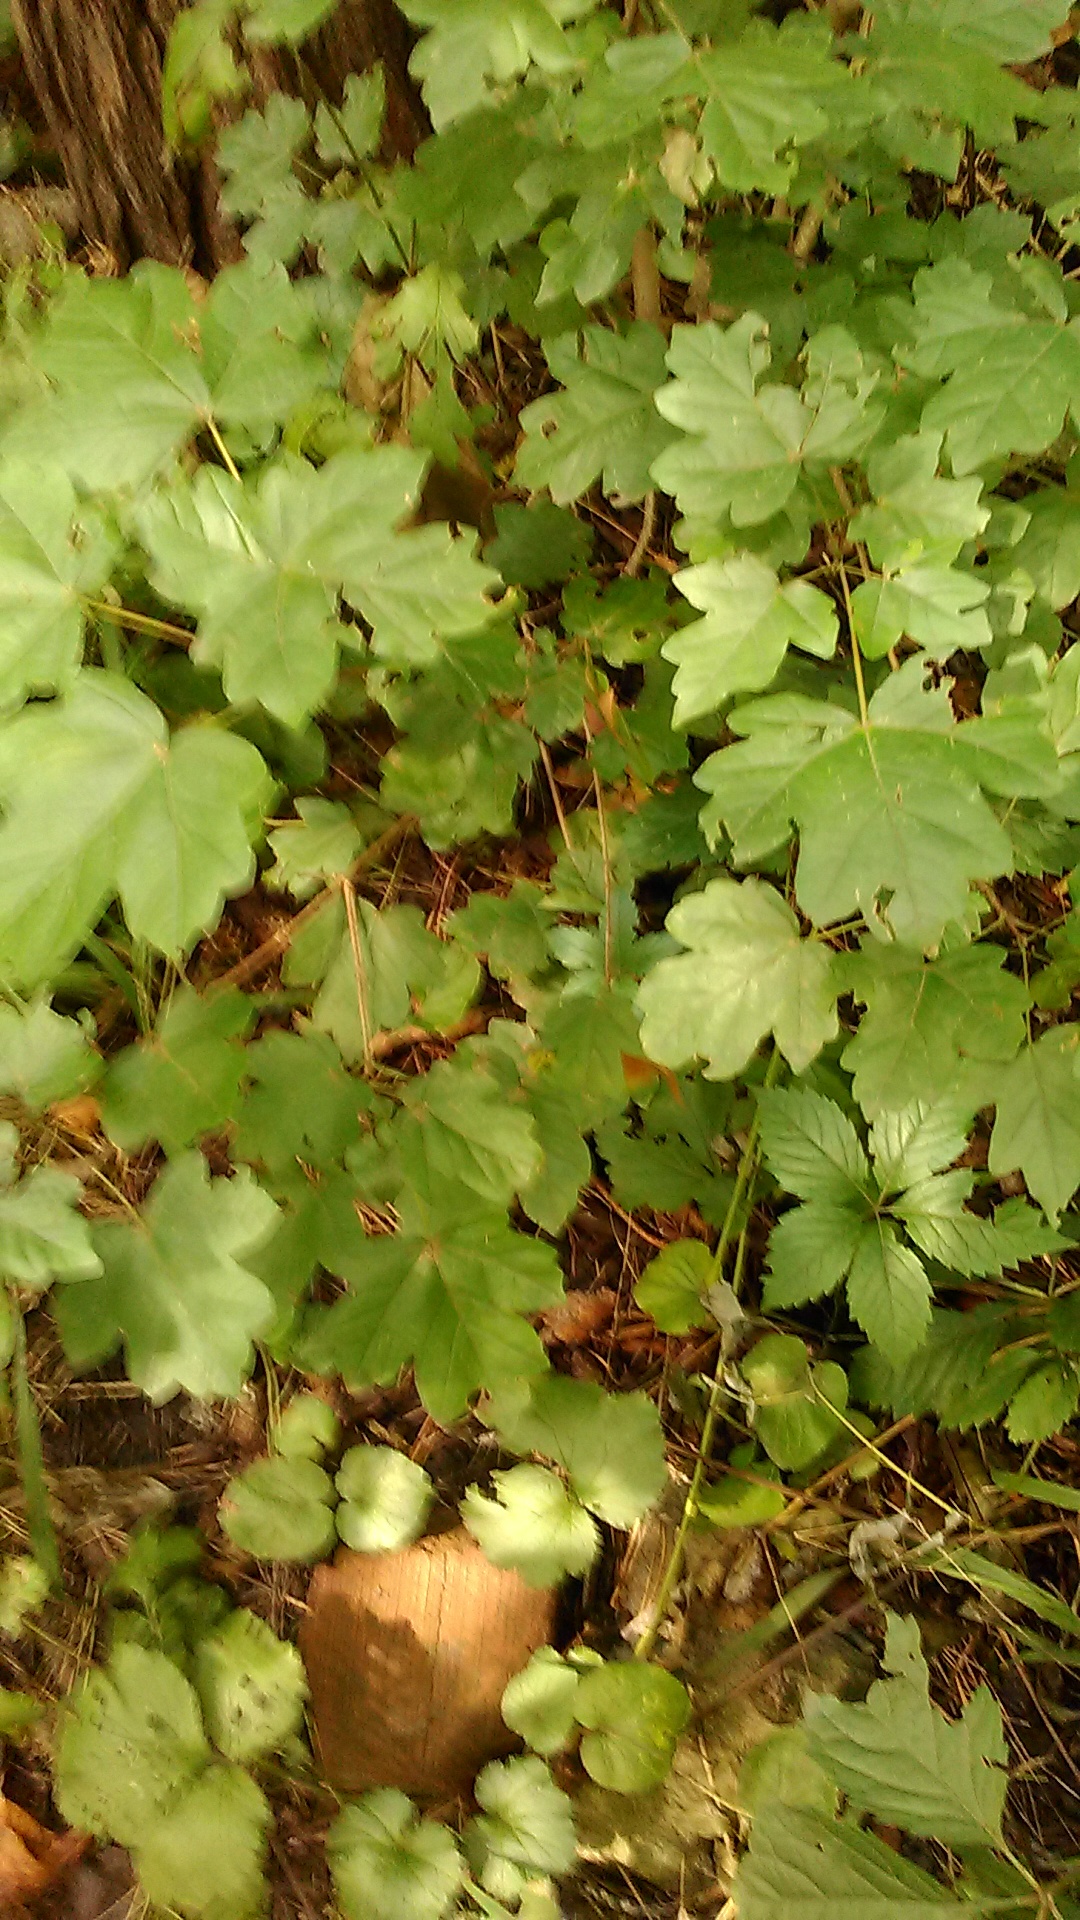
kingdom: Plantae
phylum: Tracheophyta
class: Magnoliopsida
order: Sapindales
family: Sapindaceae
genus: Acer
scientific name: Acer campestre
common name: Field maple
